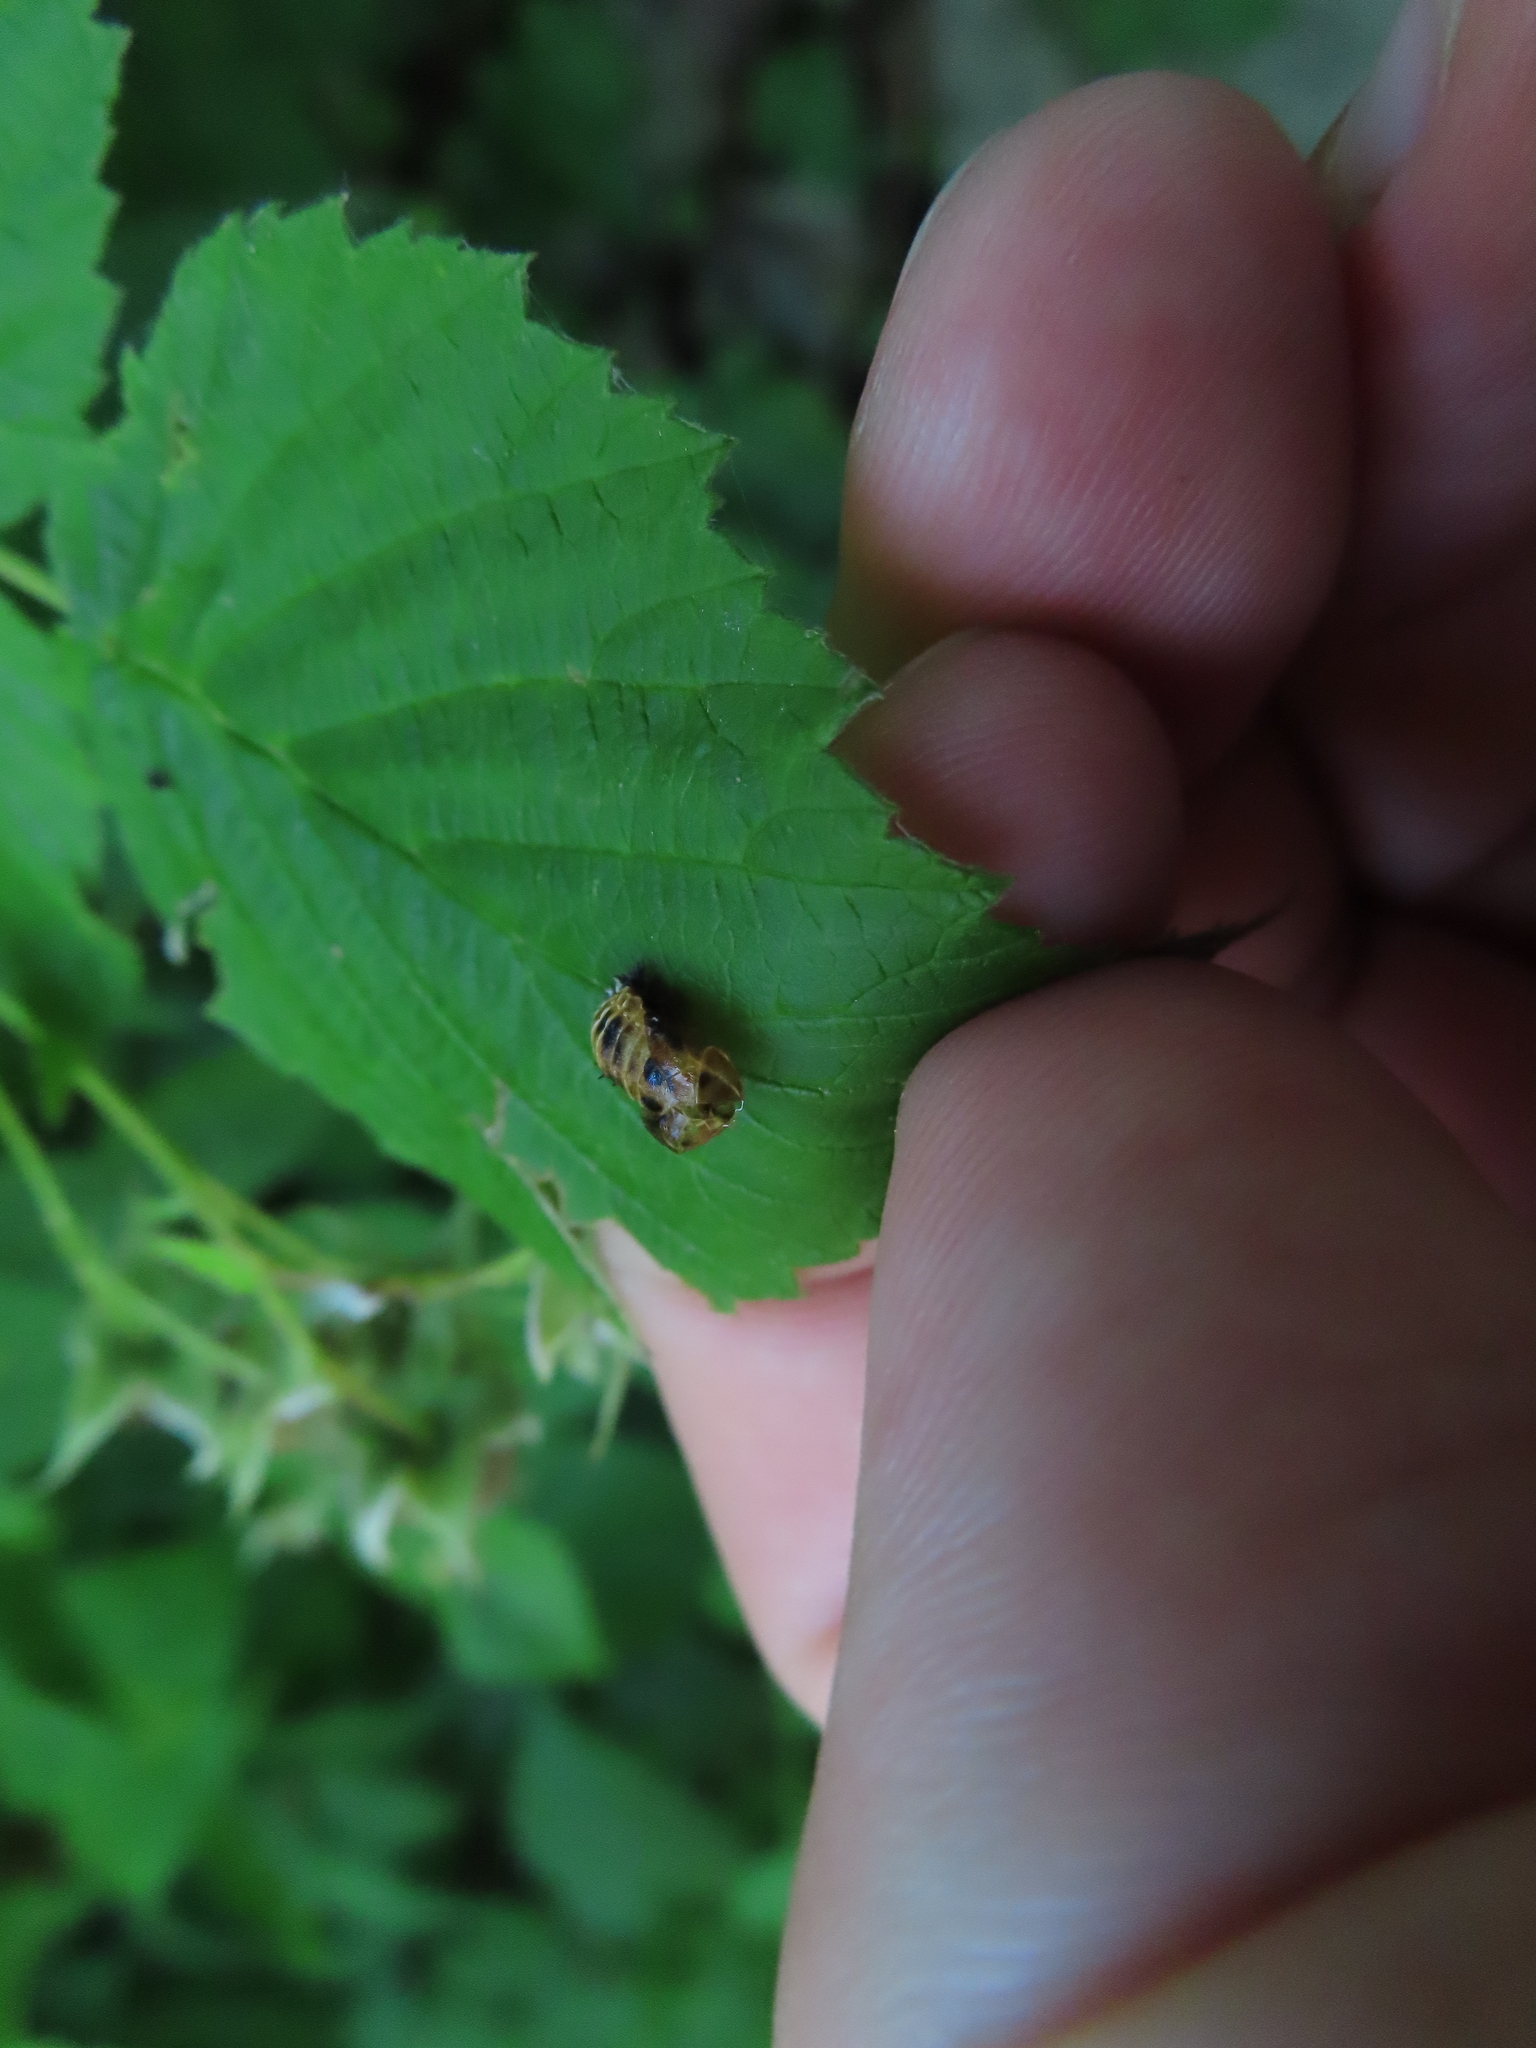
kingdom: Animalia
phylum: Arthropoda
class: Insecta
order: Coleoptera
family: Coccinellidae
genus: Harmonia
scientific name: Harmonia axyridis
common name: Harlequin ladybird
